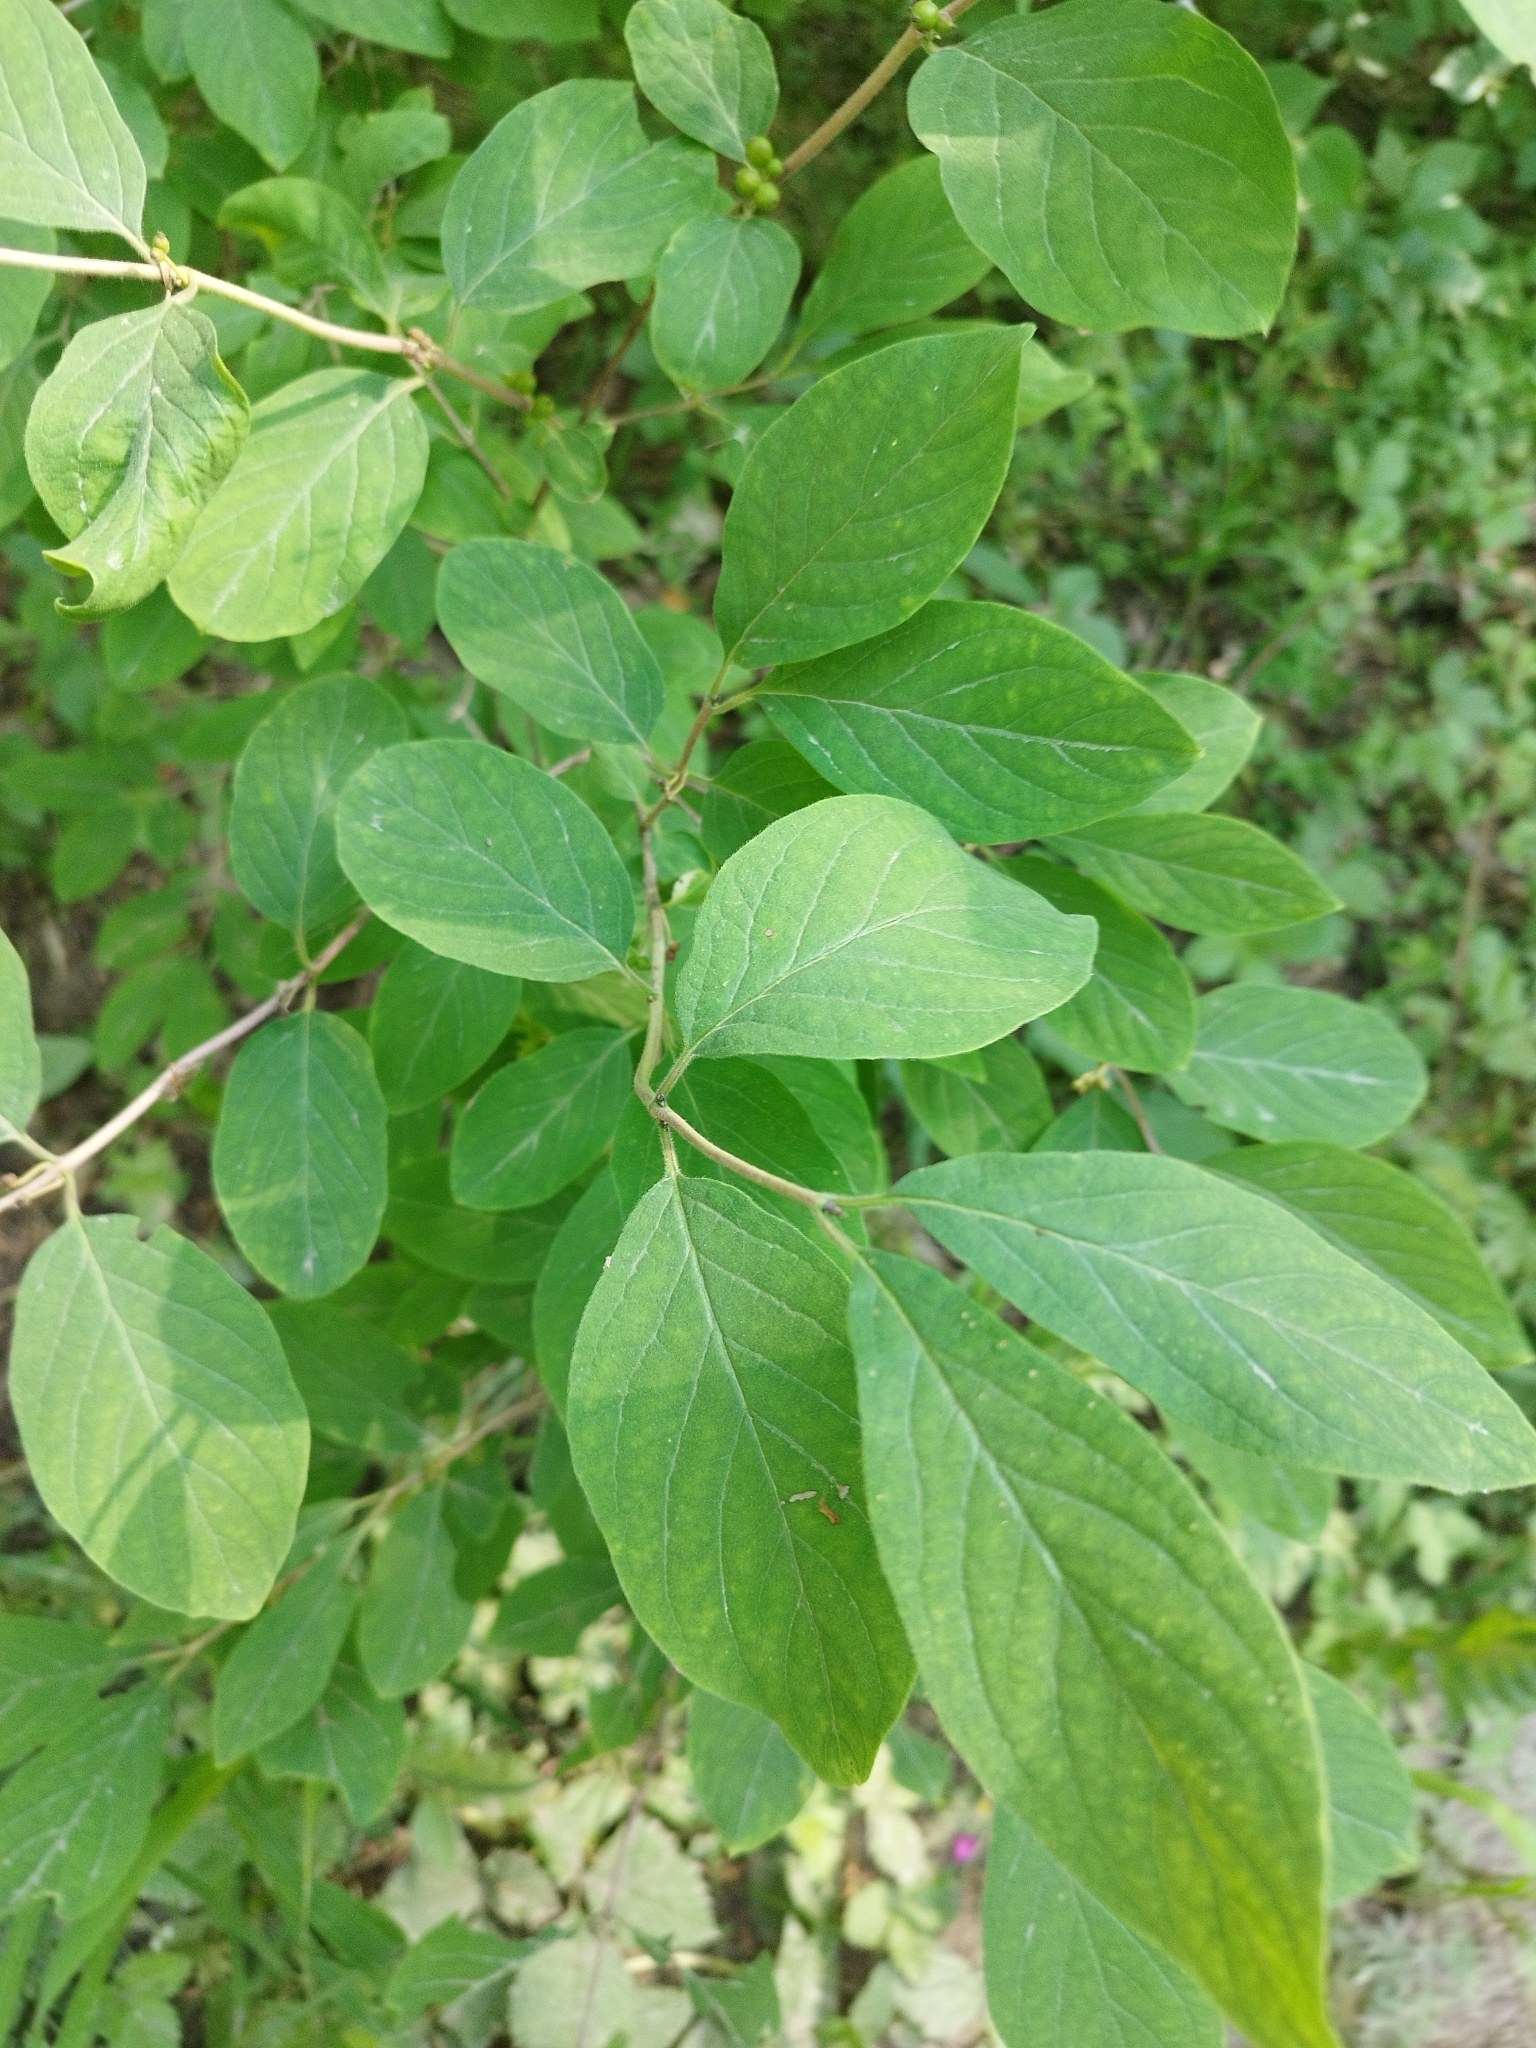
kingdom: Plantae
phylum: Tracheophyta
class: Magnoliopsida
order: Dipsacales
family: Caprifoliaceae
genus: Lonicera
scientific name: Lonicera xylosteum
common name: Fly honeysuckle
